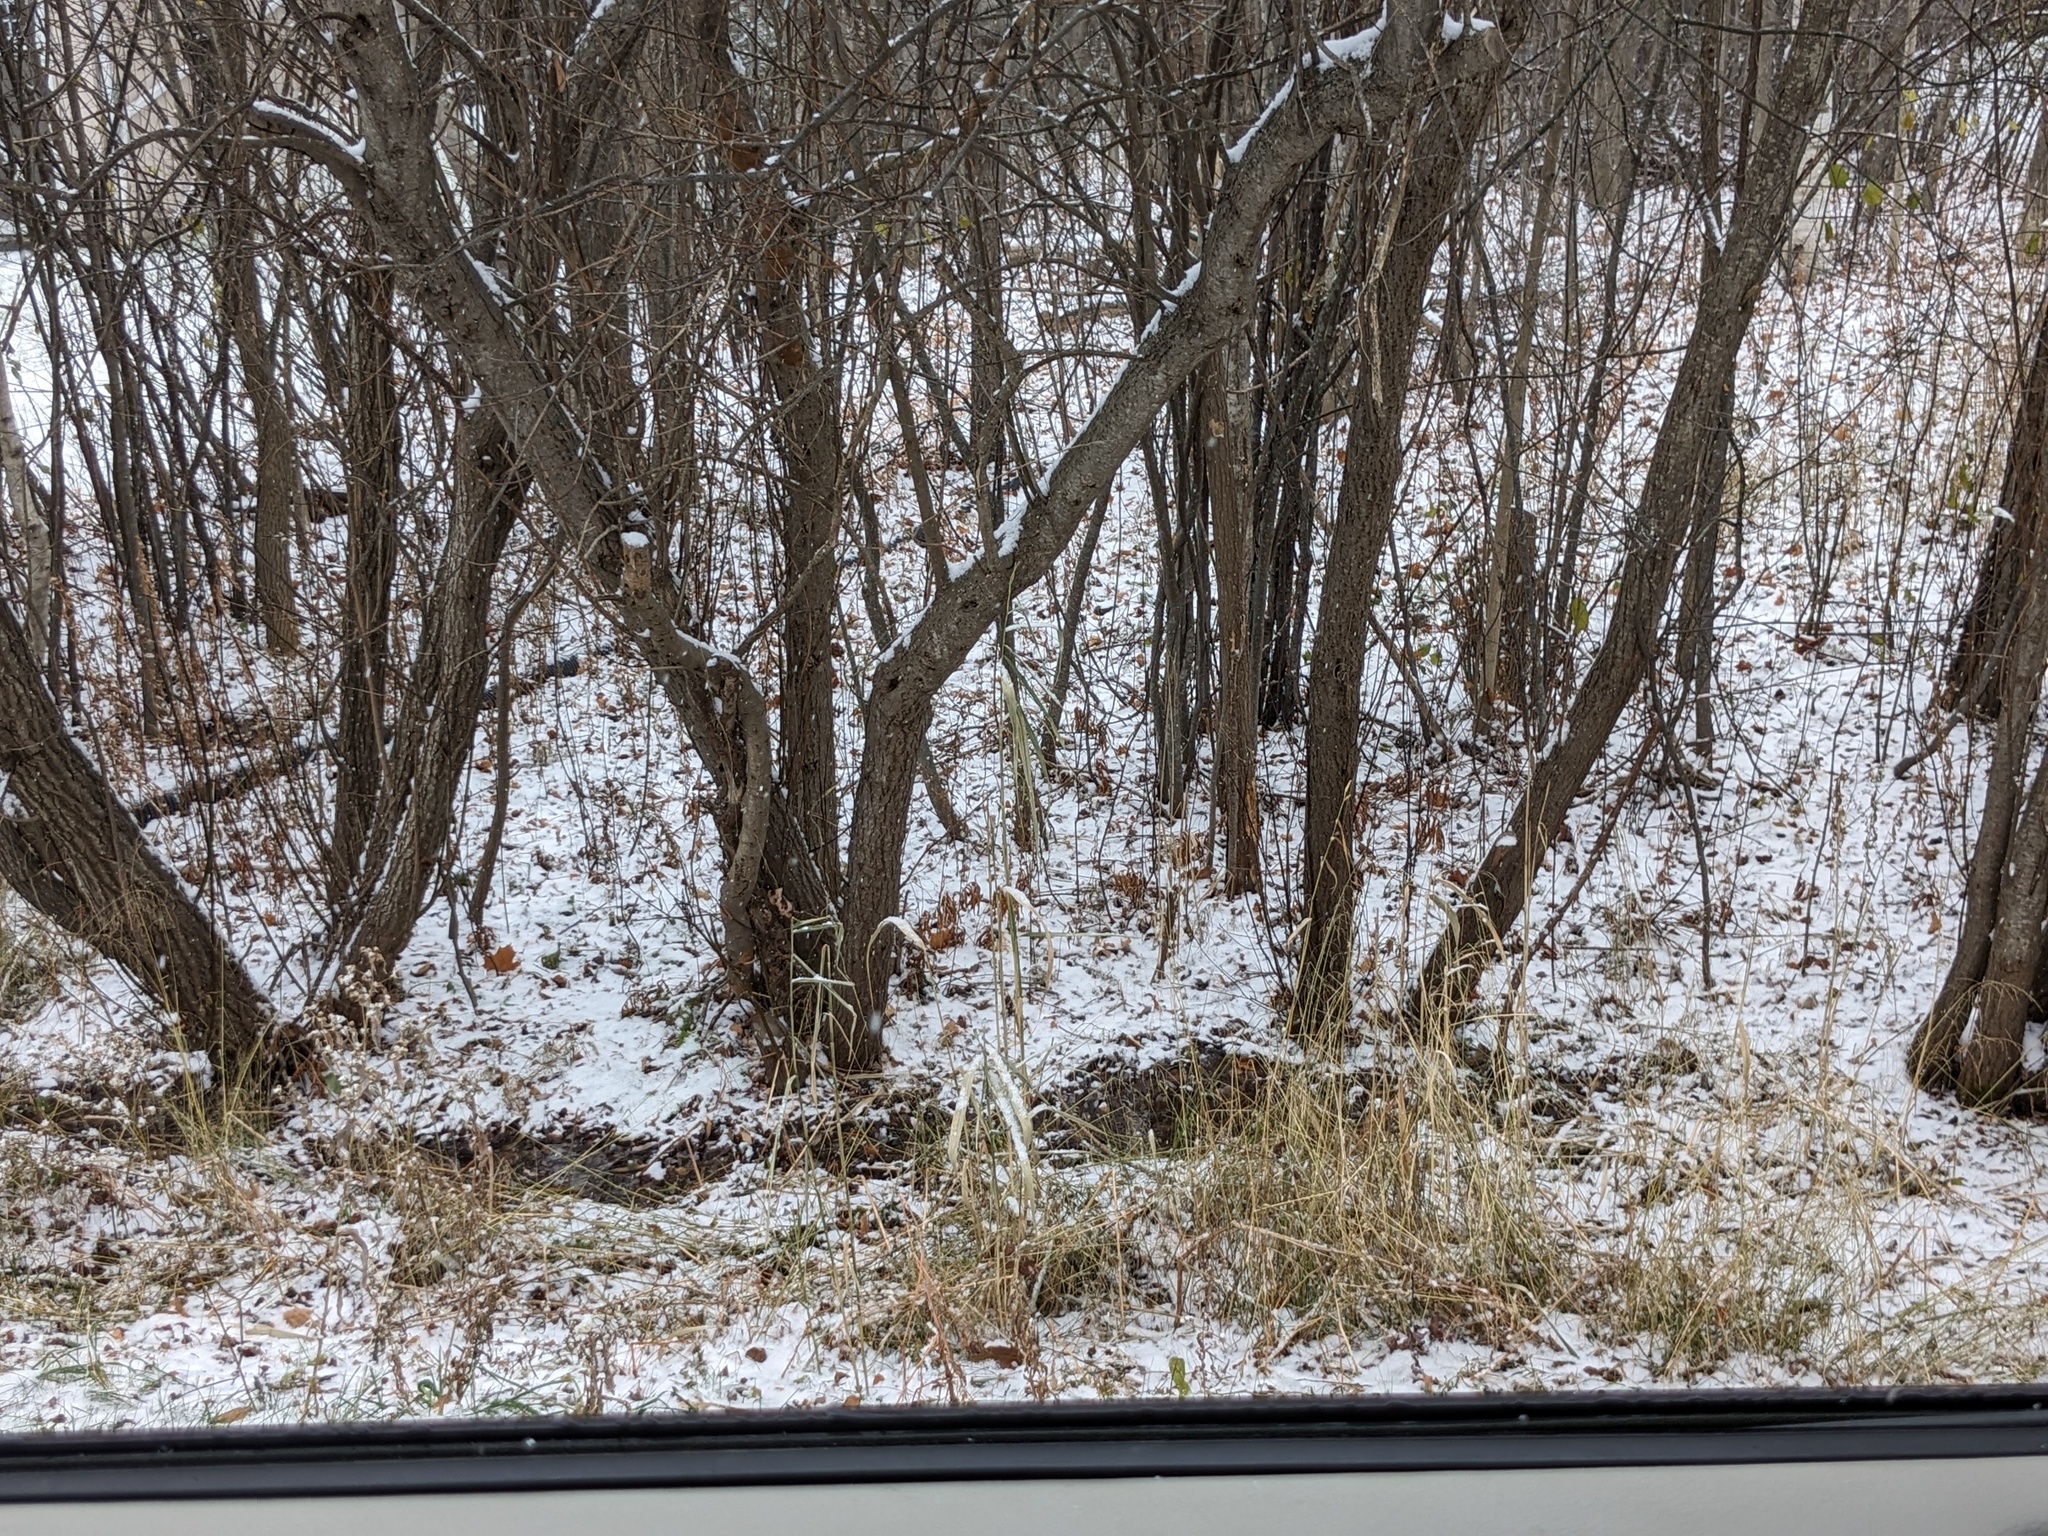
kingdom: Plantae
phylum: Tracheophyta
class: Liliopsida
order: Poales
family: Poaceae
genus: Phragmites
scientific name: Phragmites australis
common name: Common reed
